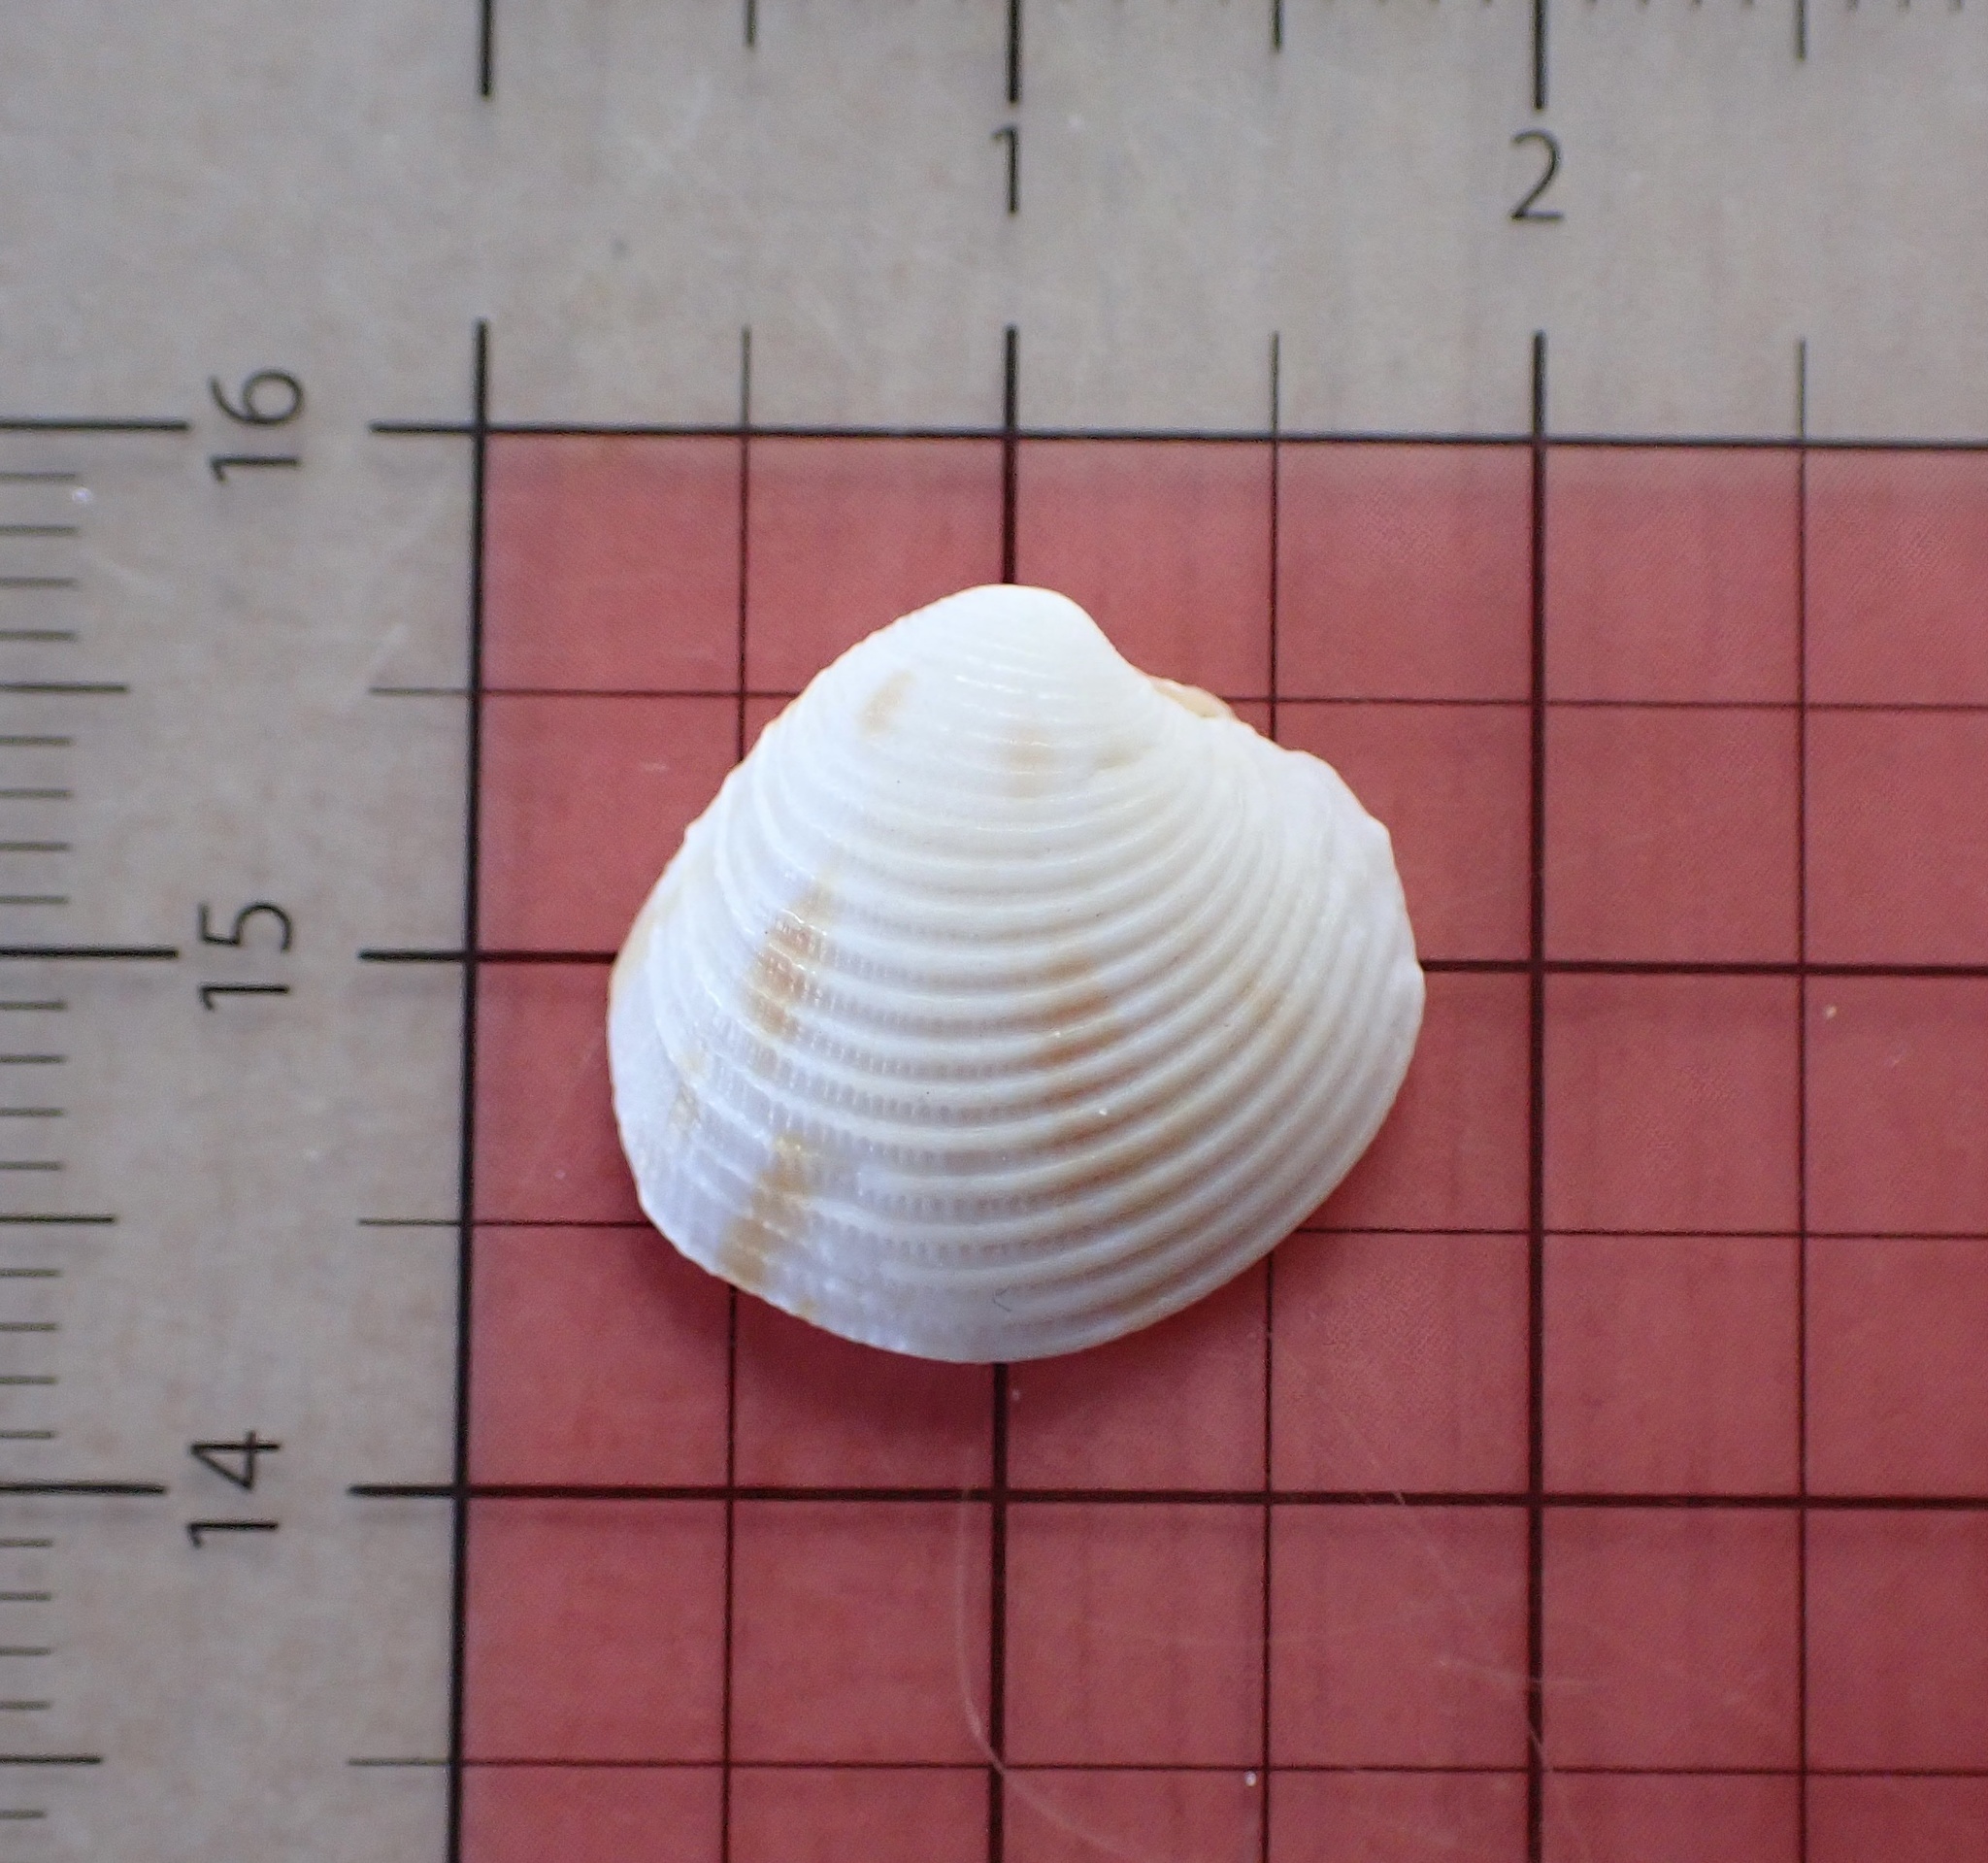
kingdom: Animalia
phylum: Mollusca
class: Bivalvia
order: Venerida
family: Veneridae
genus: Chionopsis
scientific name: Chionopsis intapurpurea
